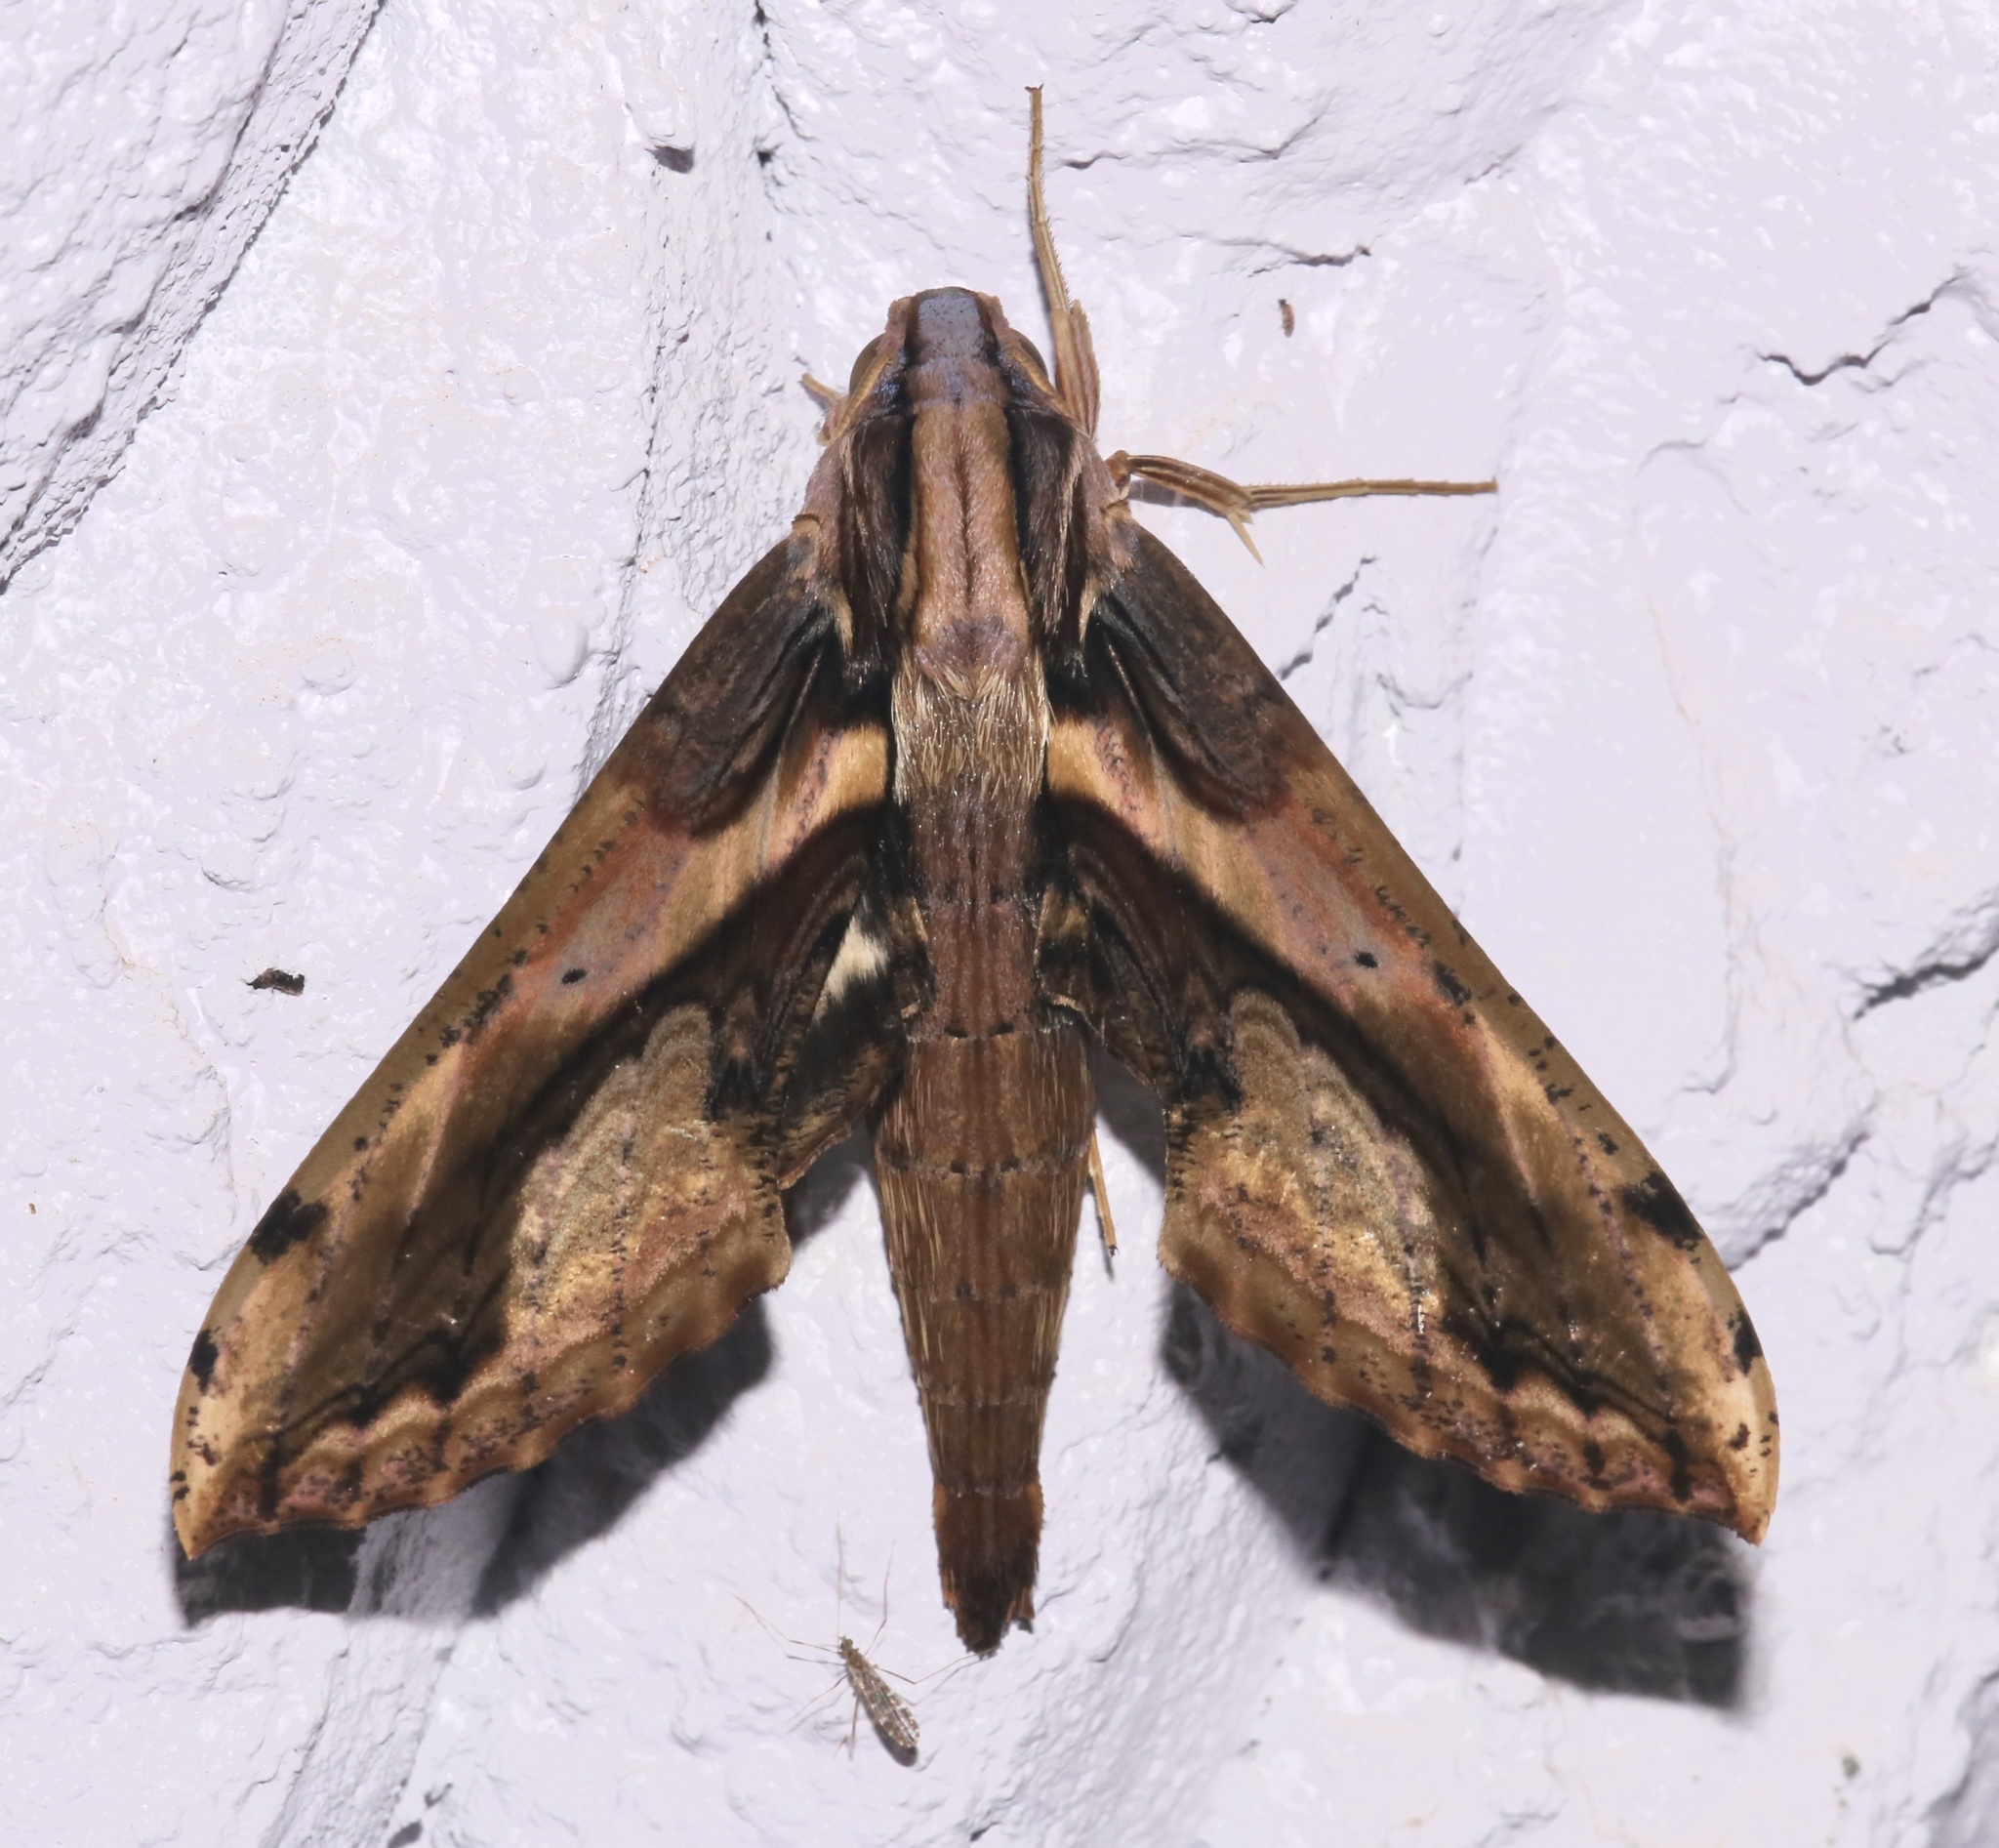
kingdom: Animalia
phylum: Arthropoda
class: Insecta
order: Lepidoptera
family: Sphingidae
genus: Xylophanes
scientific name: Xylophanes ceratomioides
